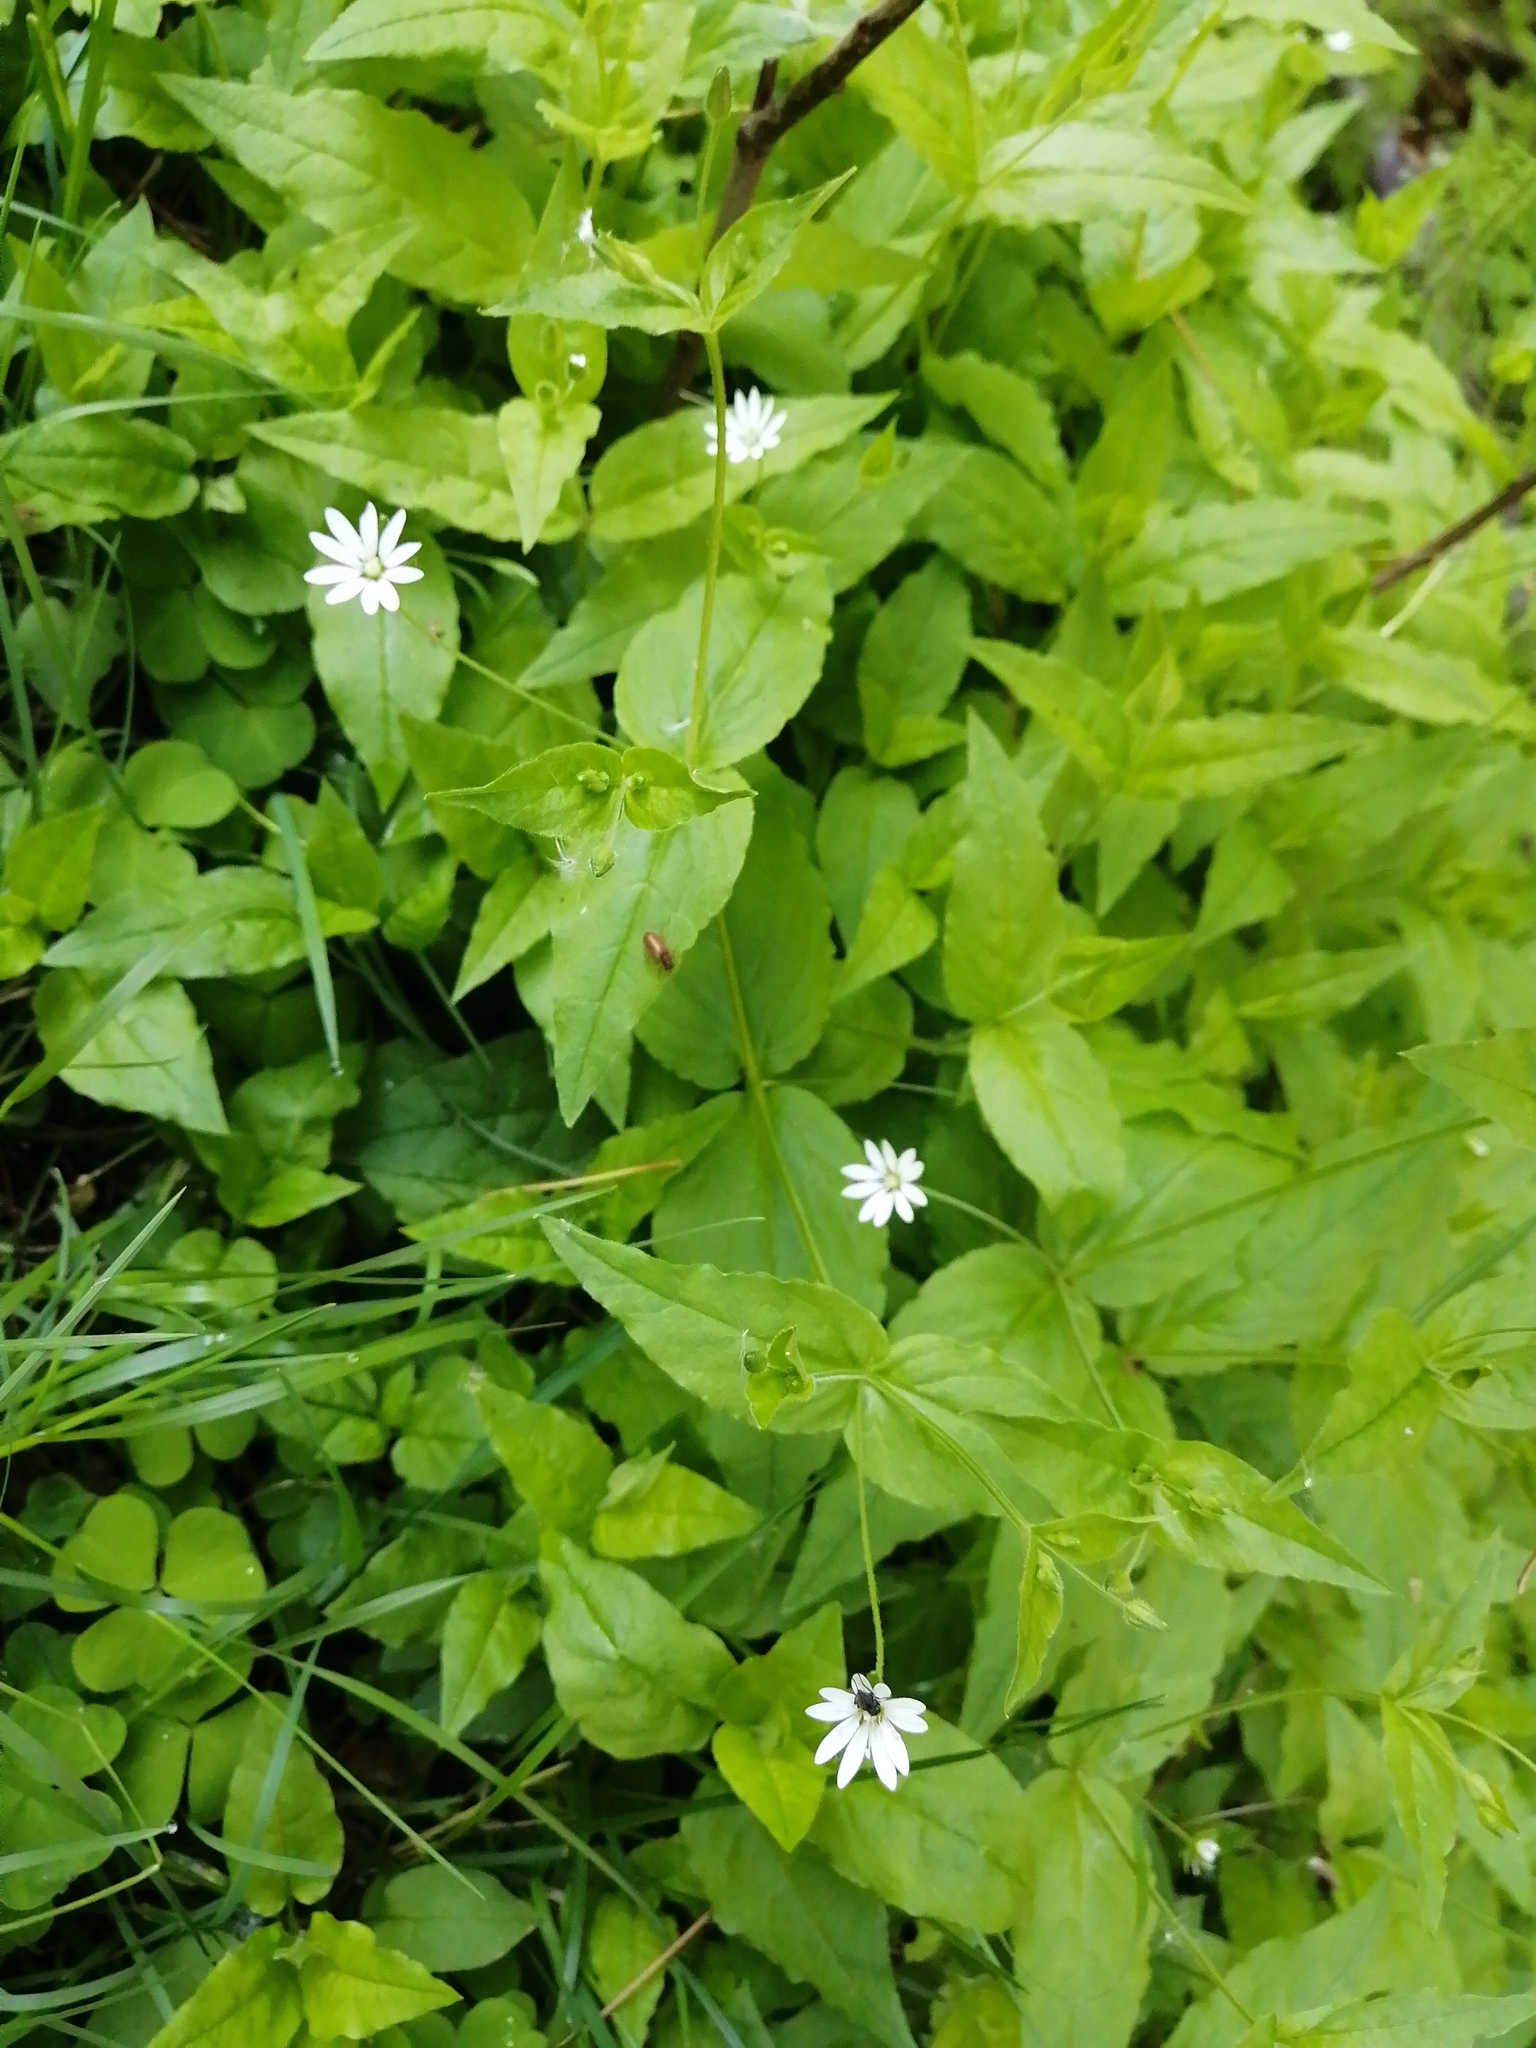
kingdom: Plantae
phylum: Tracheophyta
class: Magnoliopsida
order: Caryophyllales
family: Caryophyllaceae
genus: Stellaria
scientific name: Stellaria bungeana
